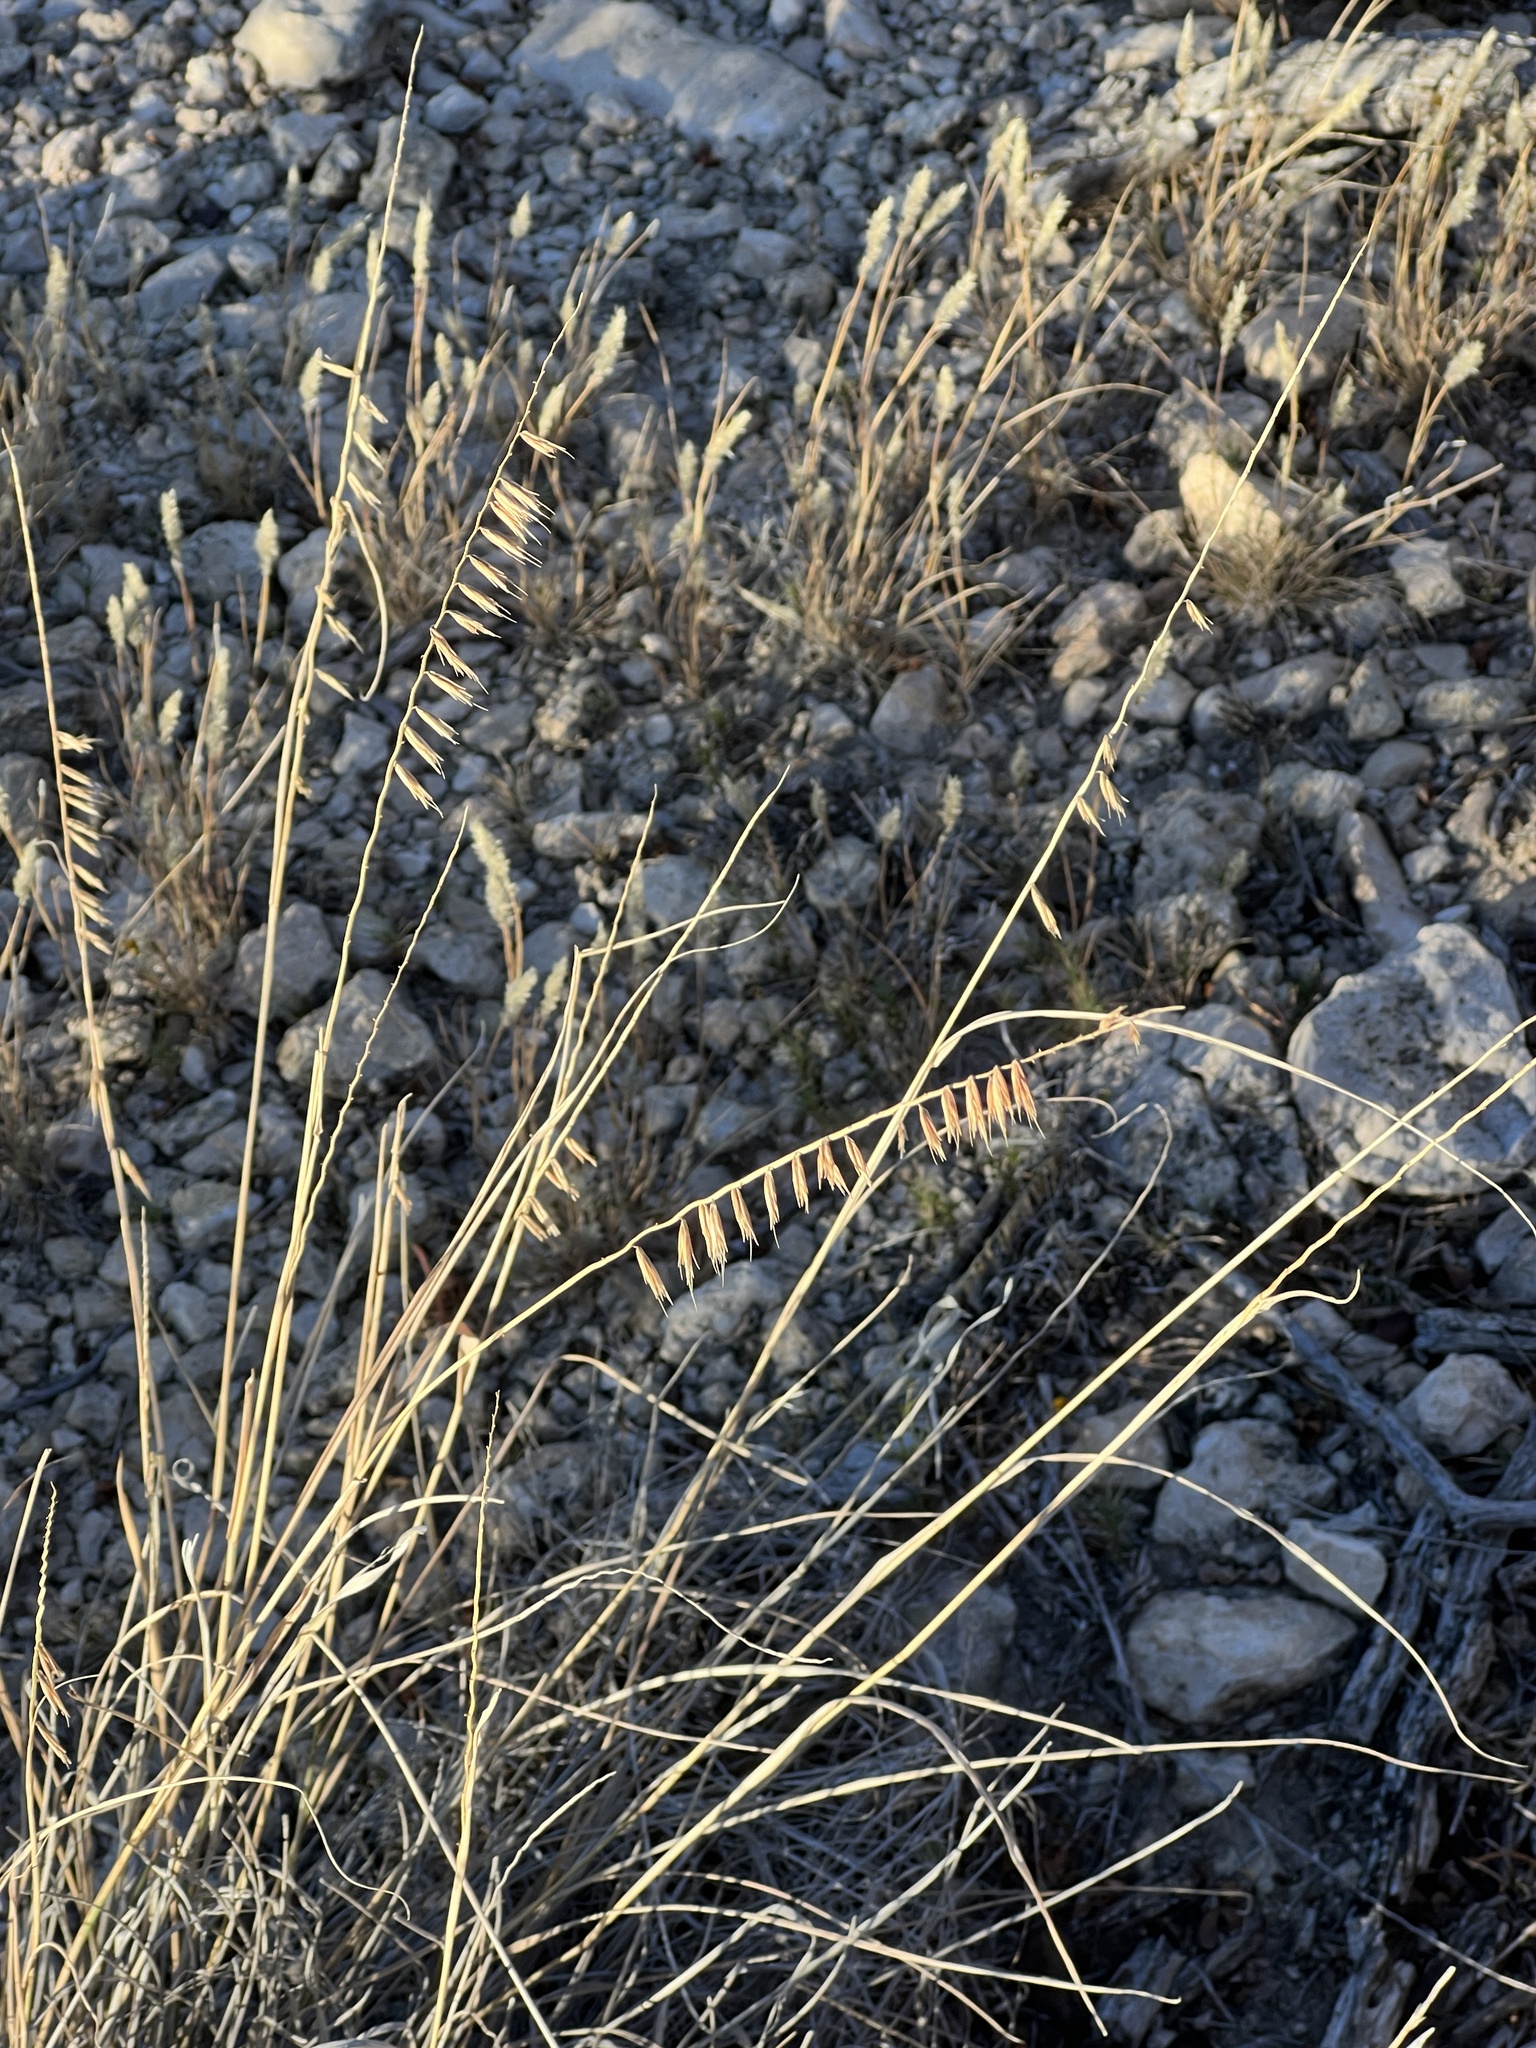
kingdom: Plantae
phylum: Tracheophyta
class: Liliopsida
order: Poales
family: Poaceae
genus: Bouteloua
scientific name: Bouteloua curtipendula
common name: Side-oats grama
